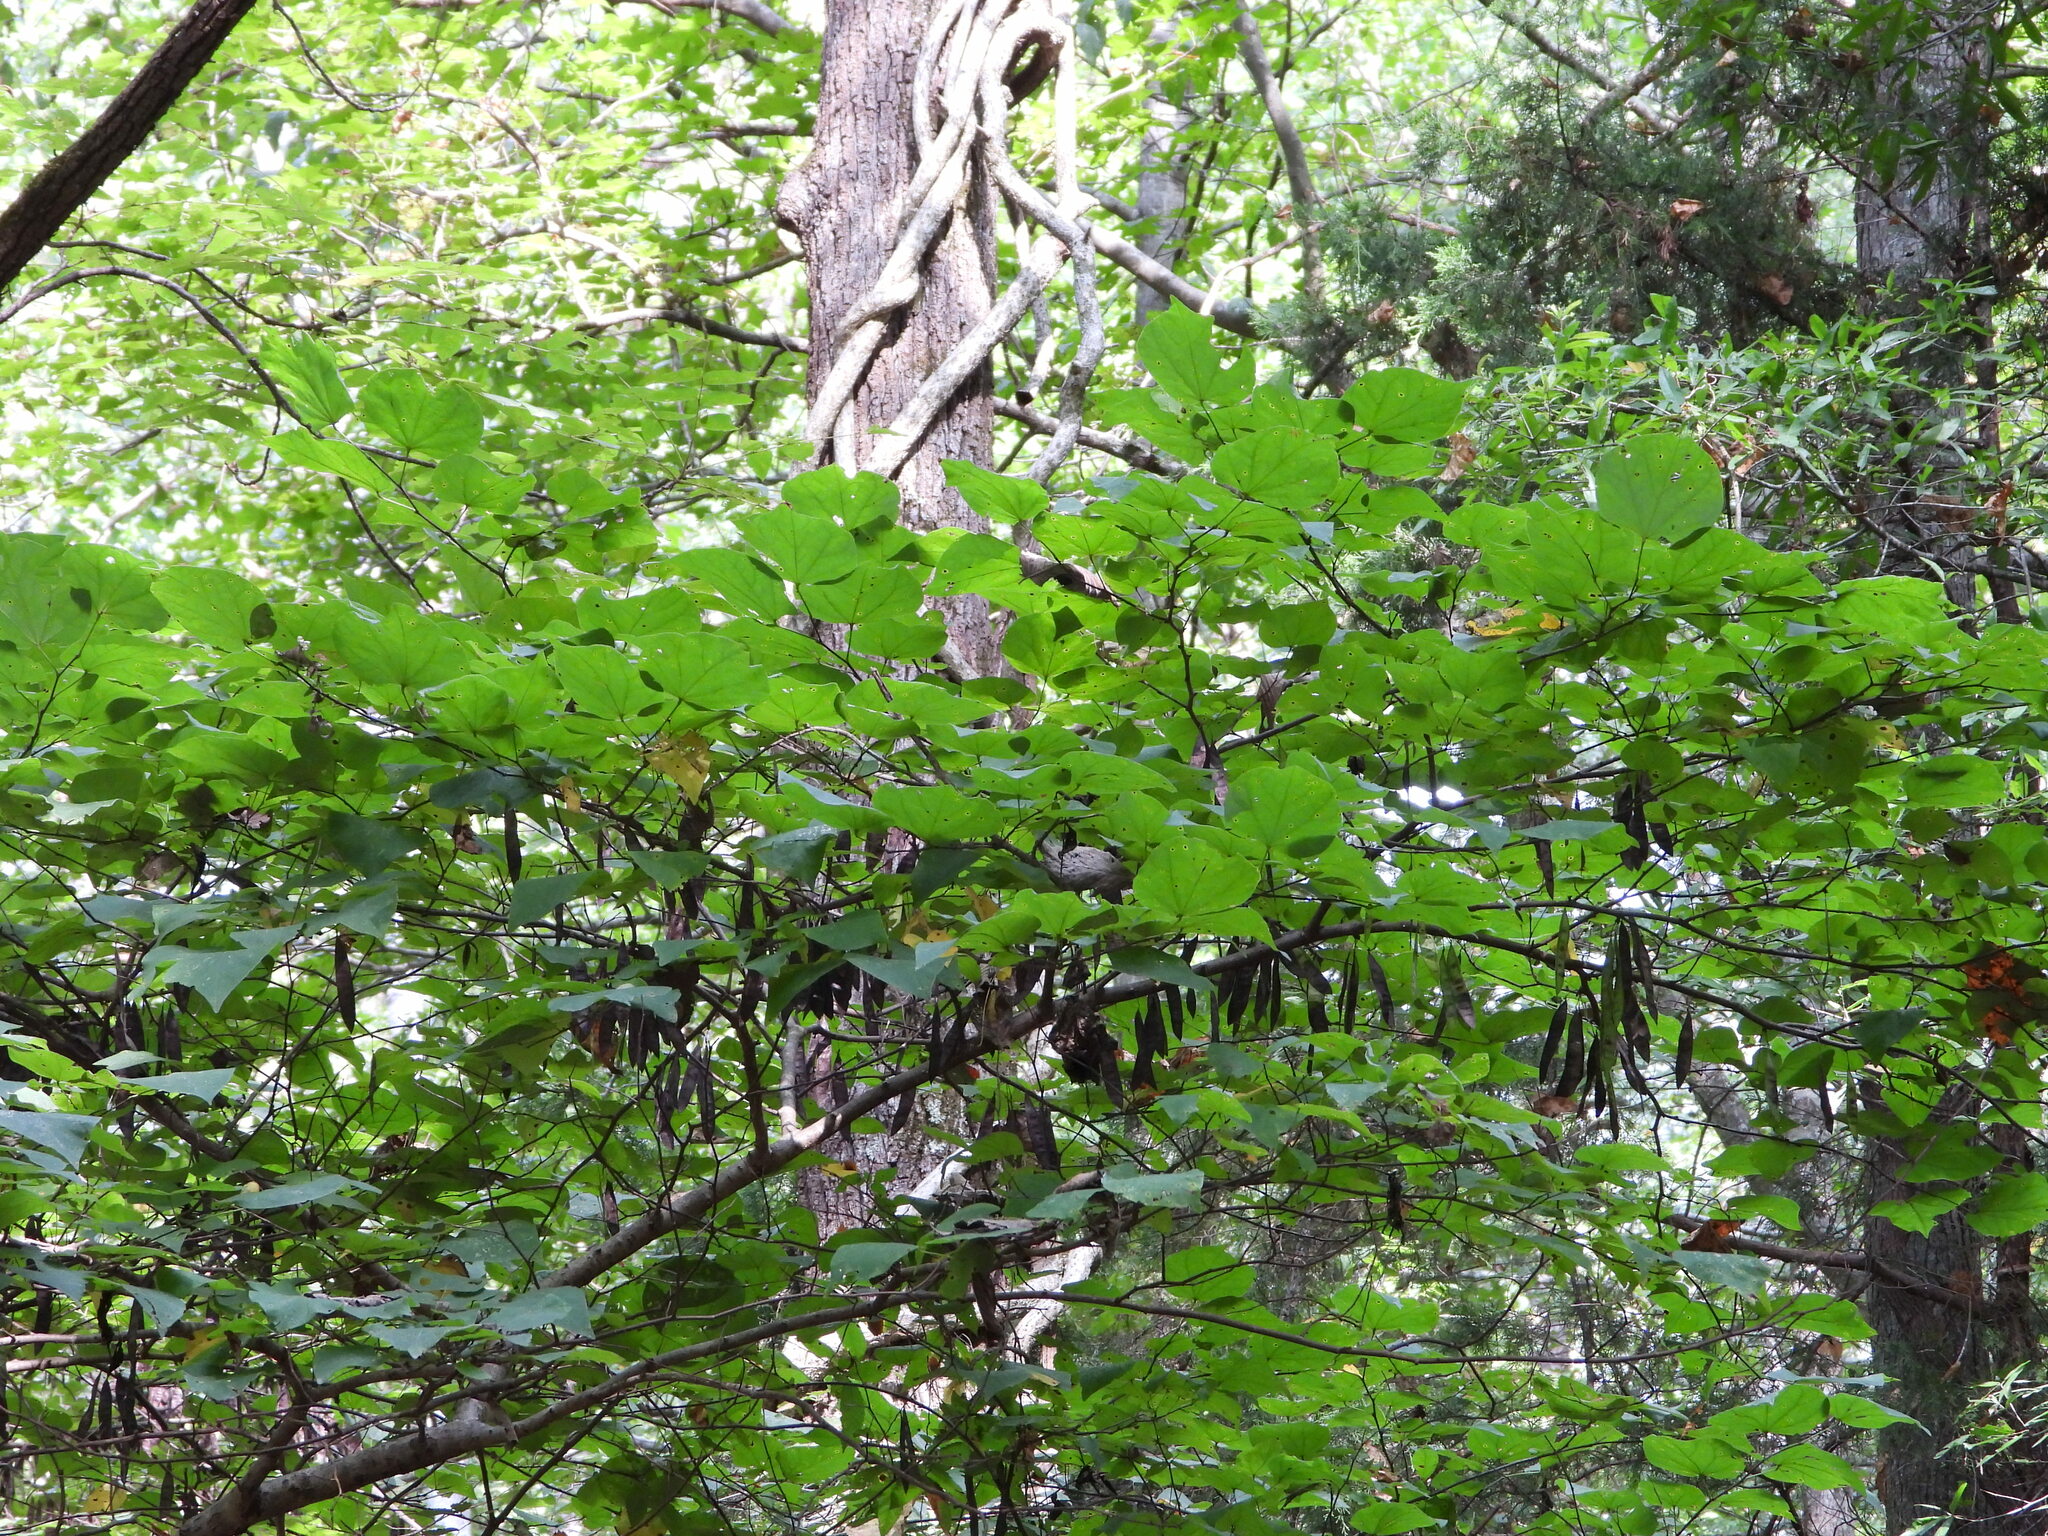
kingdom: Plantae
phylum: Tracheophyta
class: Magnoliopsida
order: Fabales
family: Fabaceae
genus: Cercis
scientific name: Cercis canadensis
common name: Eastern redbud
